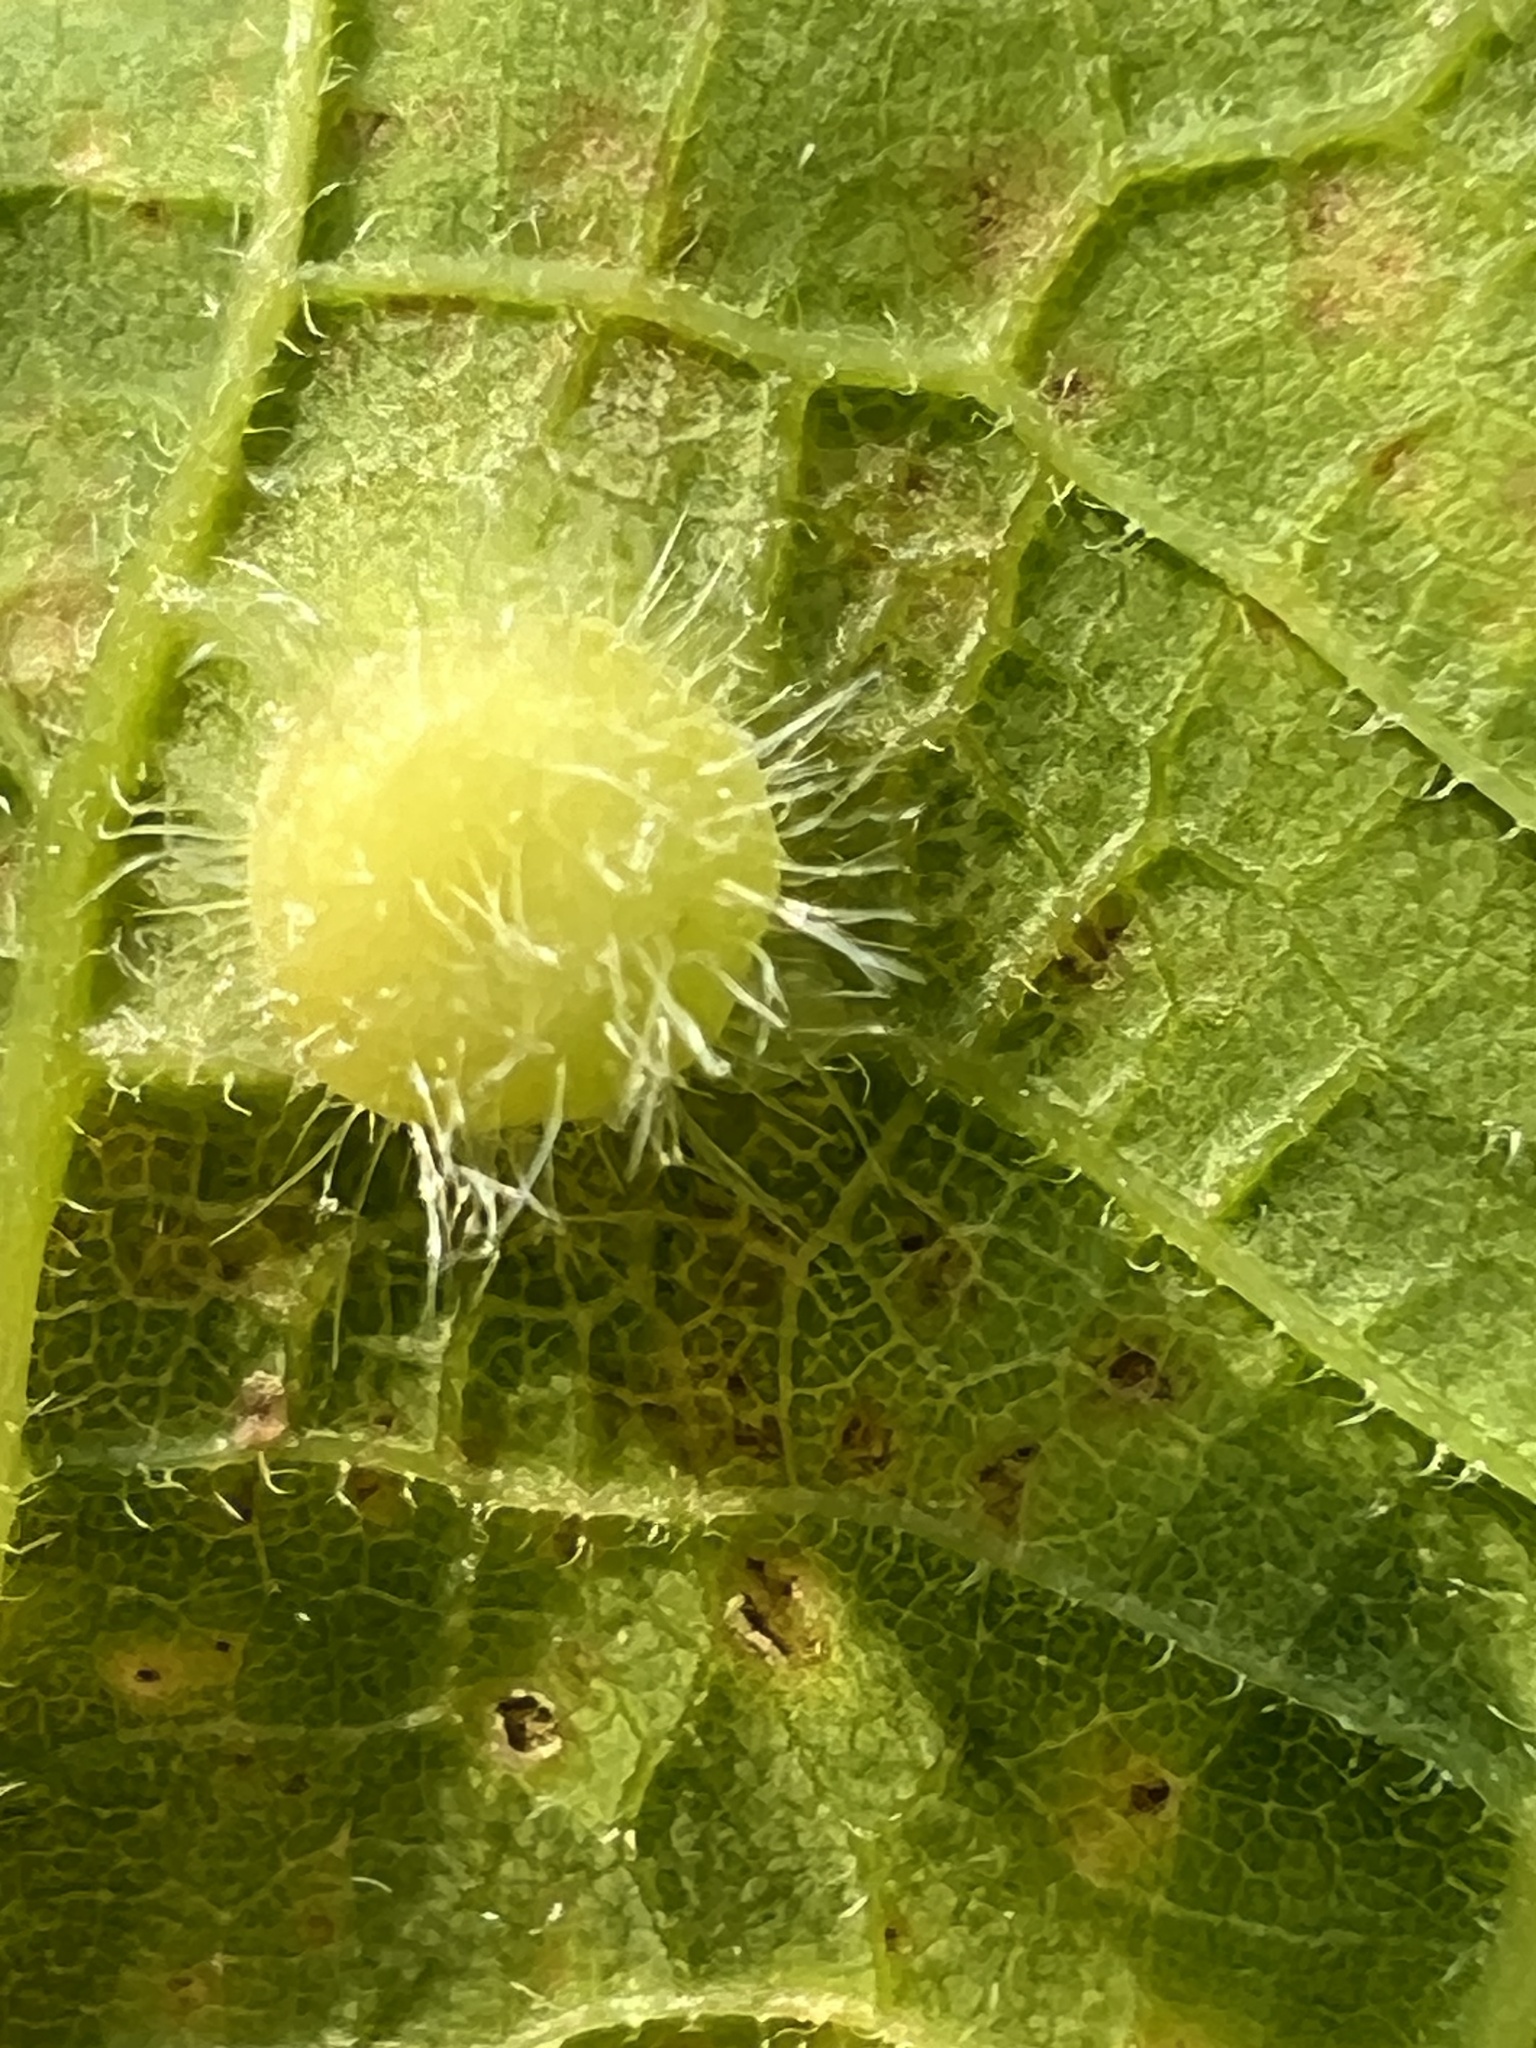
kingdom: Animalia
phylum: Arthropoda
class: Insecta
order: Hemiptera
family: Aphalaridae
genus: Pachypsylla
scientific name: Pachypsylla celtidismamma
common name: Hackberry nipplegall psyllid
